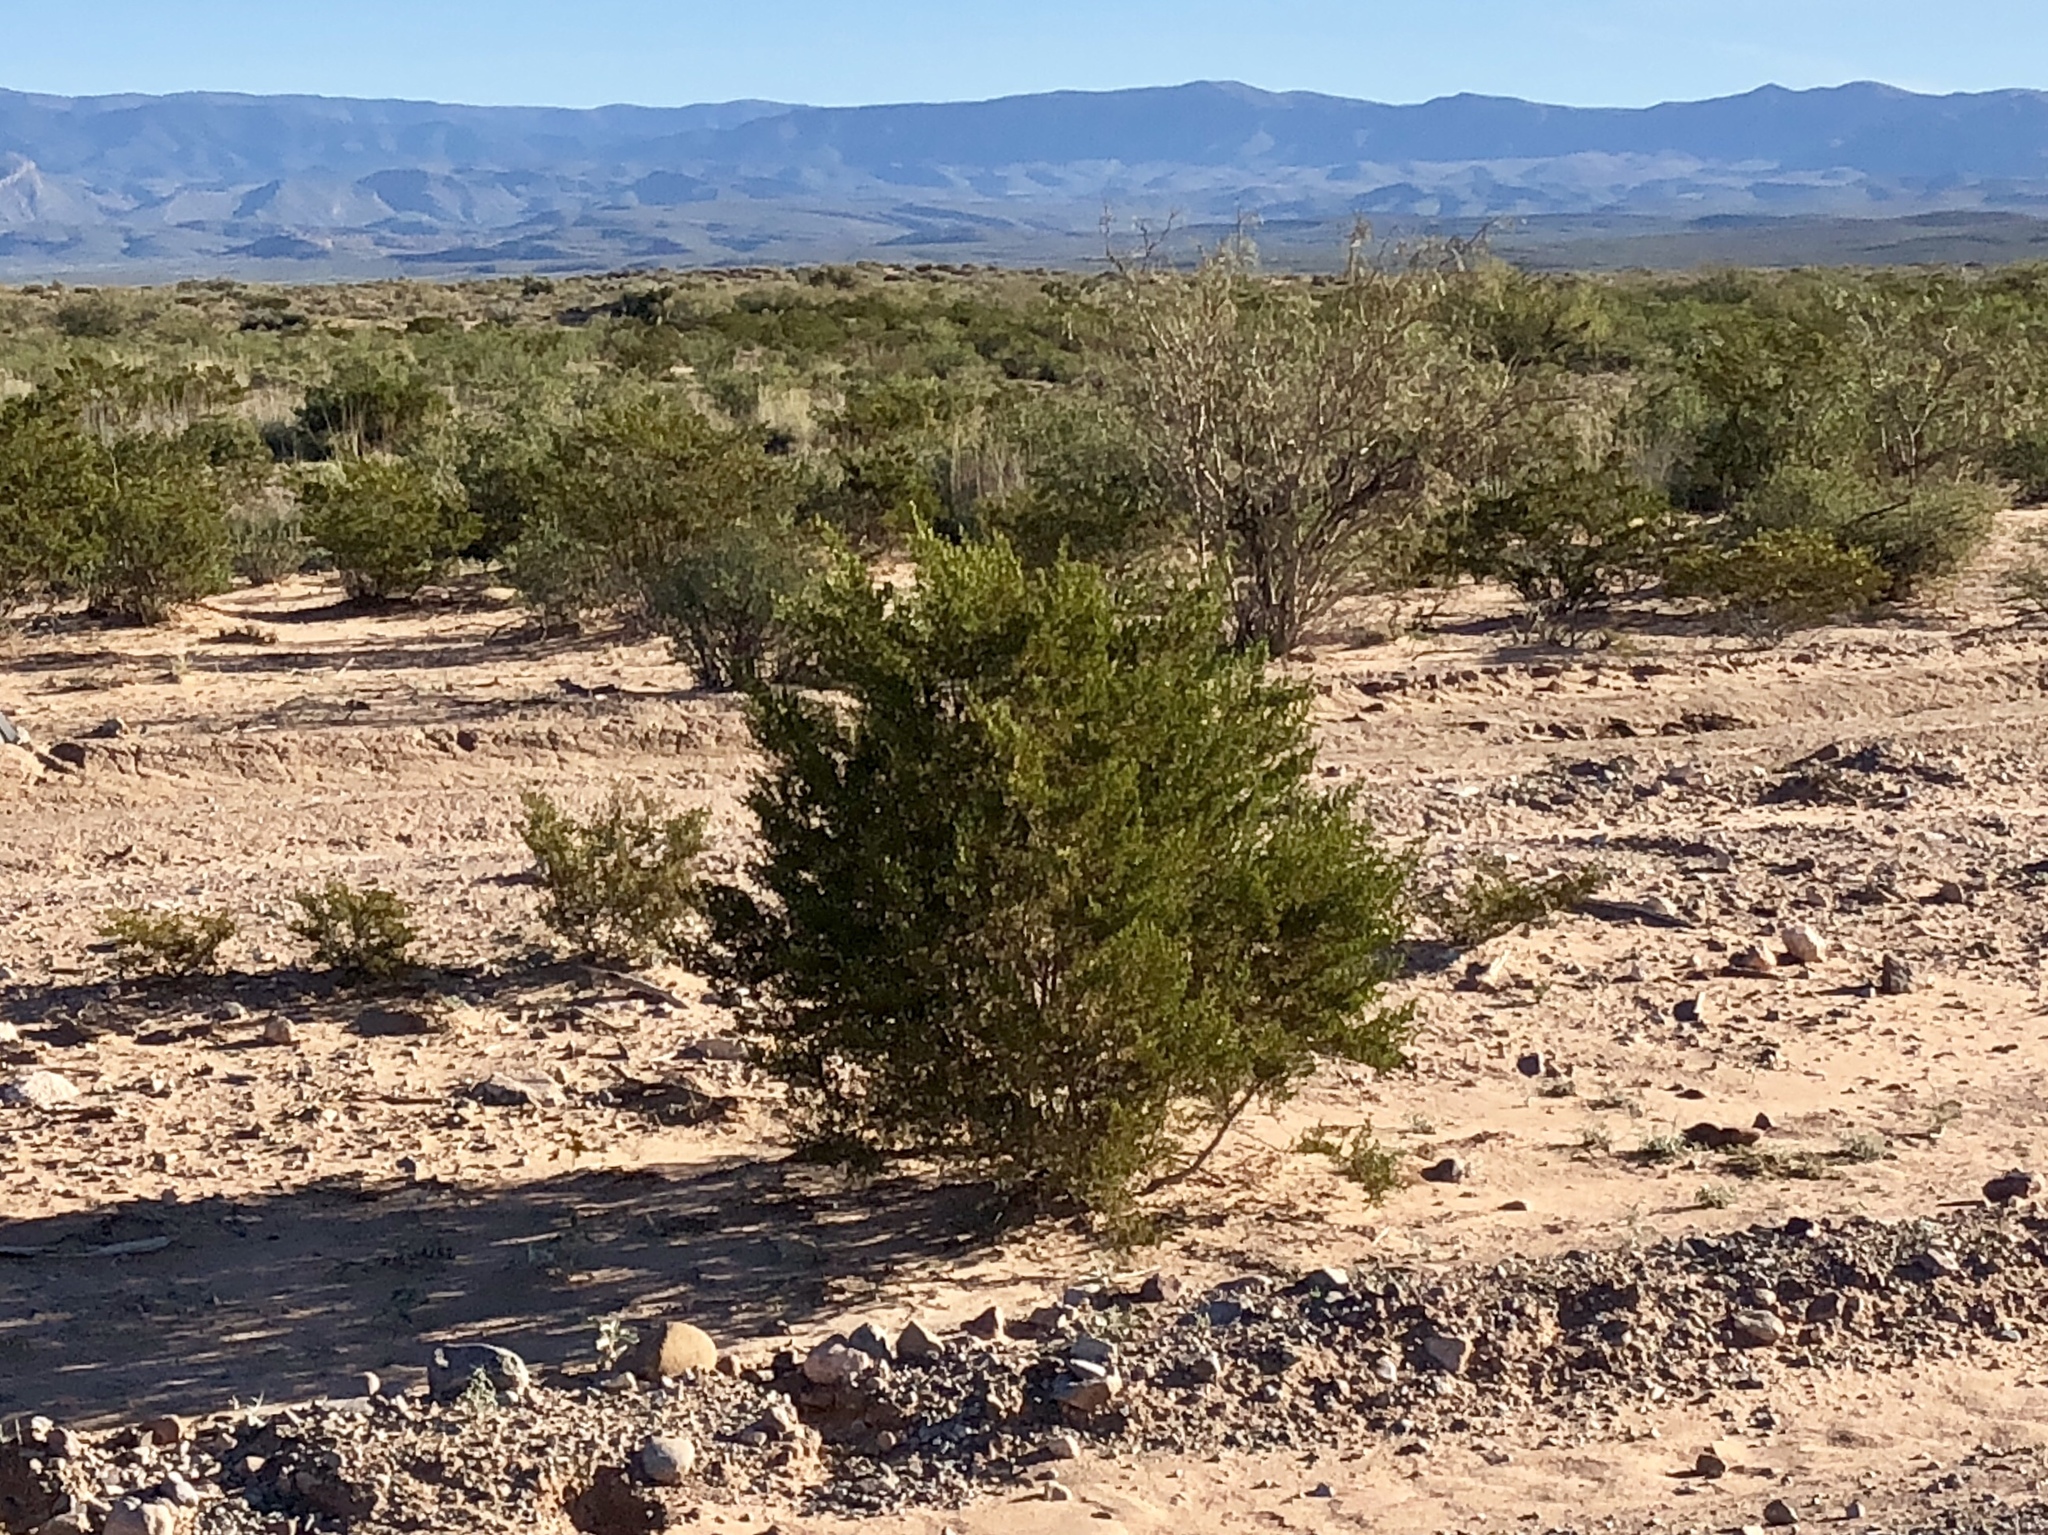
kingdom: Plantae
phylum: Tracheophyta
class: Magnoliopsida
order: Zygophyllales
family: Zygophyllaceae
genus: Larrea
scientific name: Larrea tridentata
